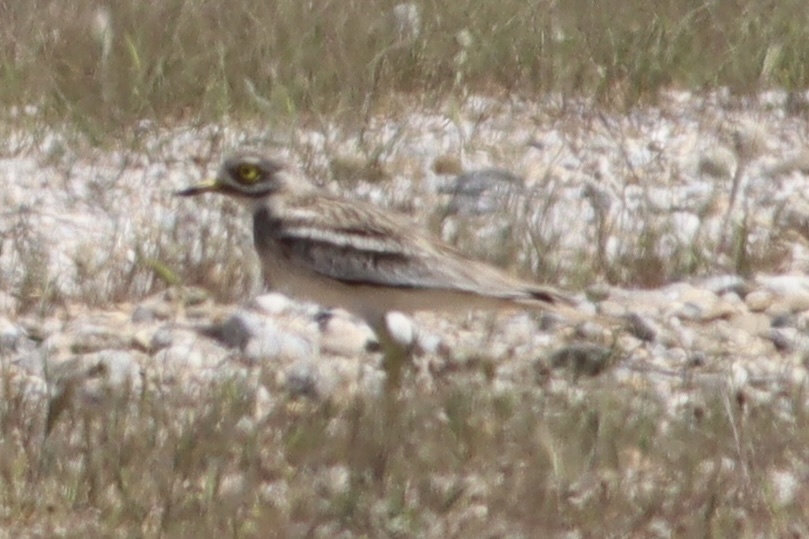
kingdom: Animalia
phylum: Chordata
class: Aves
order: Charadriiformes
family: Burhinidae
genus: Burhinus
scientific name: Burhinus oedicnemus
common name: Eurasian stone-curlew
